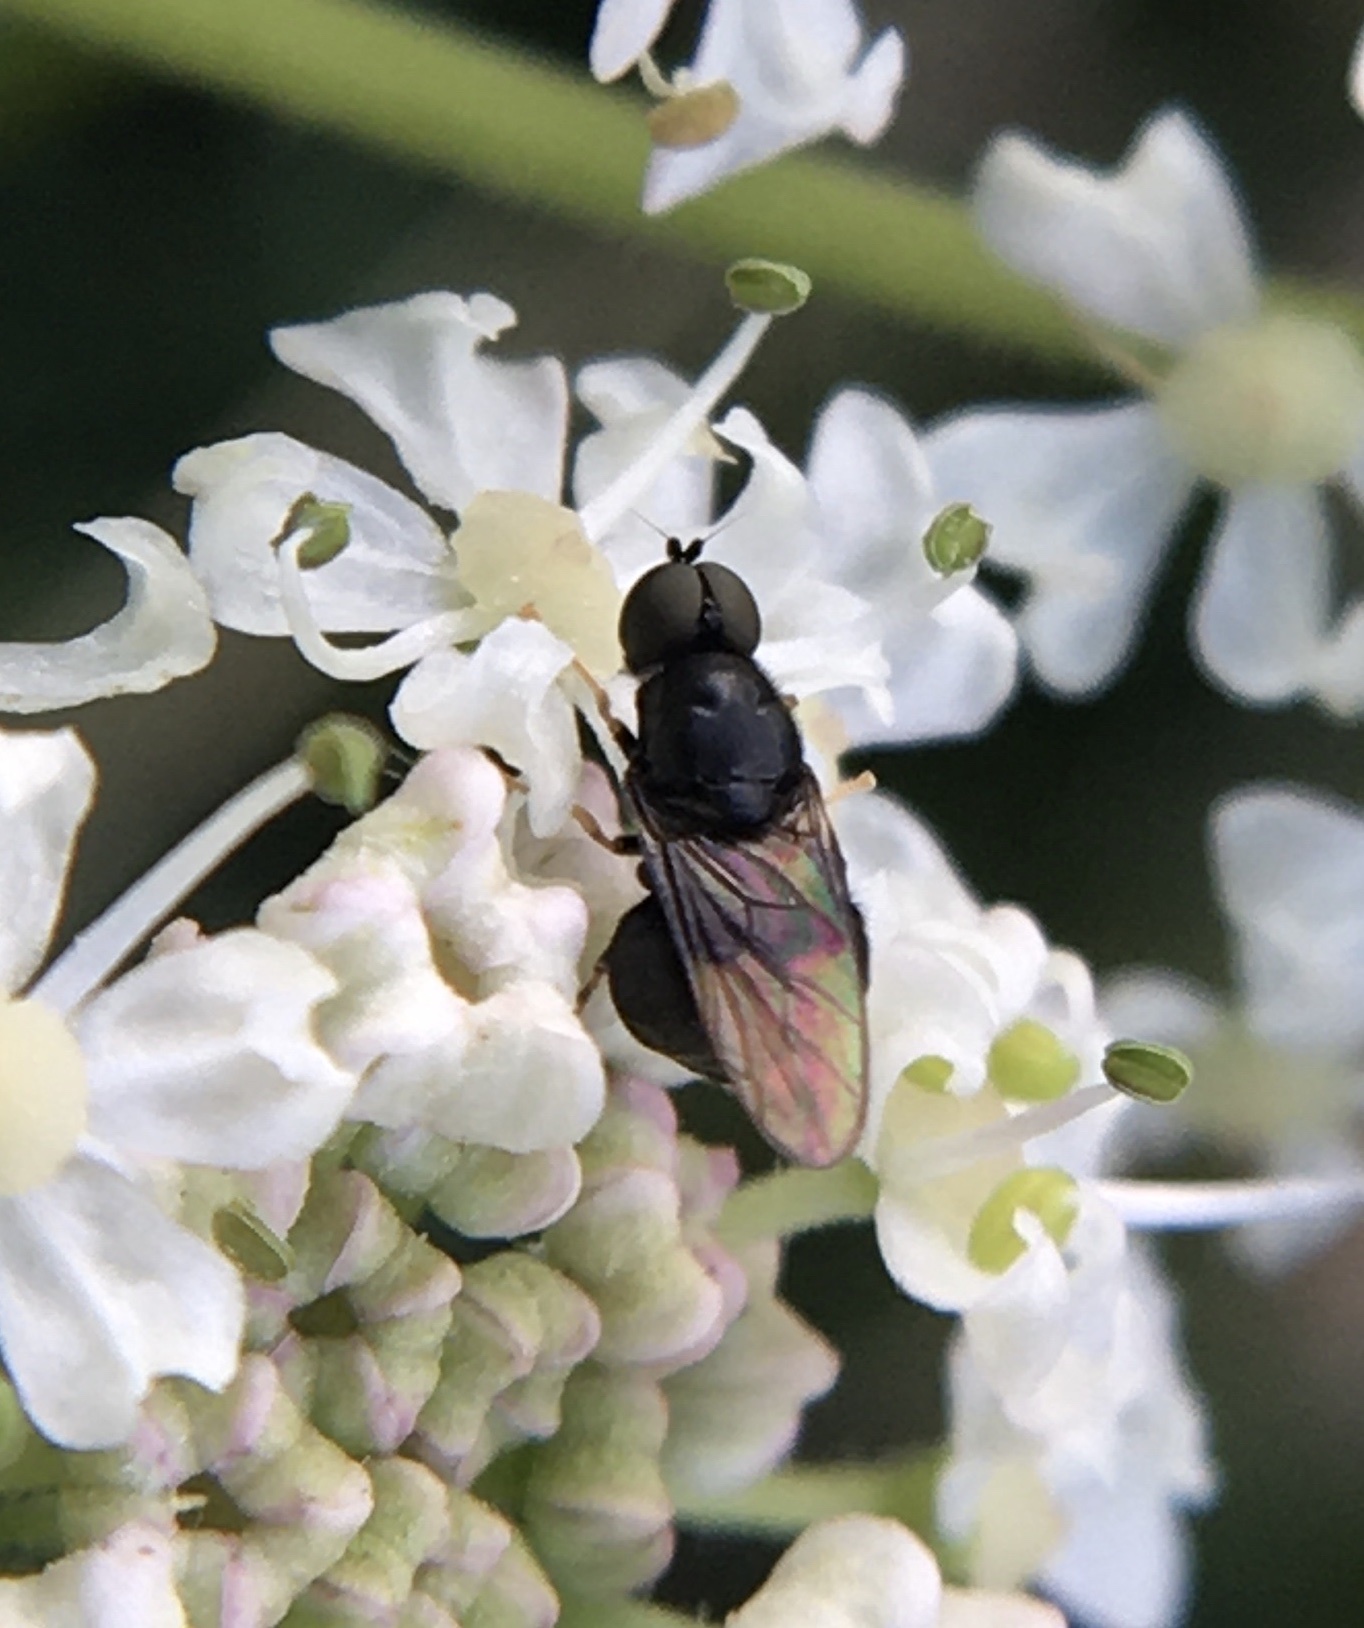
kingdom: Animalia
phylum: Arthropoda
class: Insecta
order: Diptera
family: Stratiomyidae
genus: Pachygaster
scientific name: Pachygaster atra
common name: Dark-winged black
